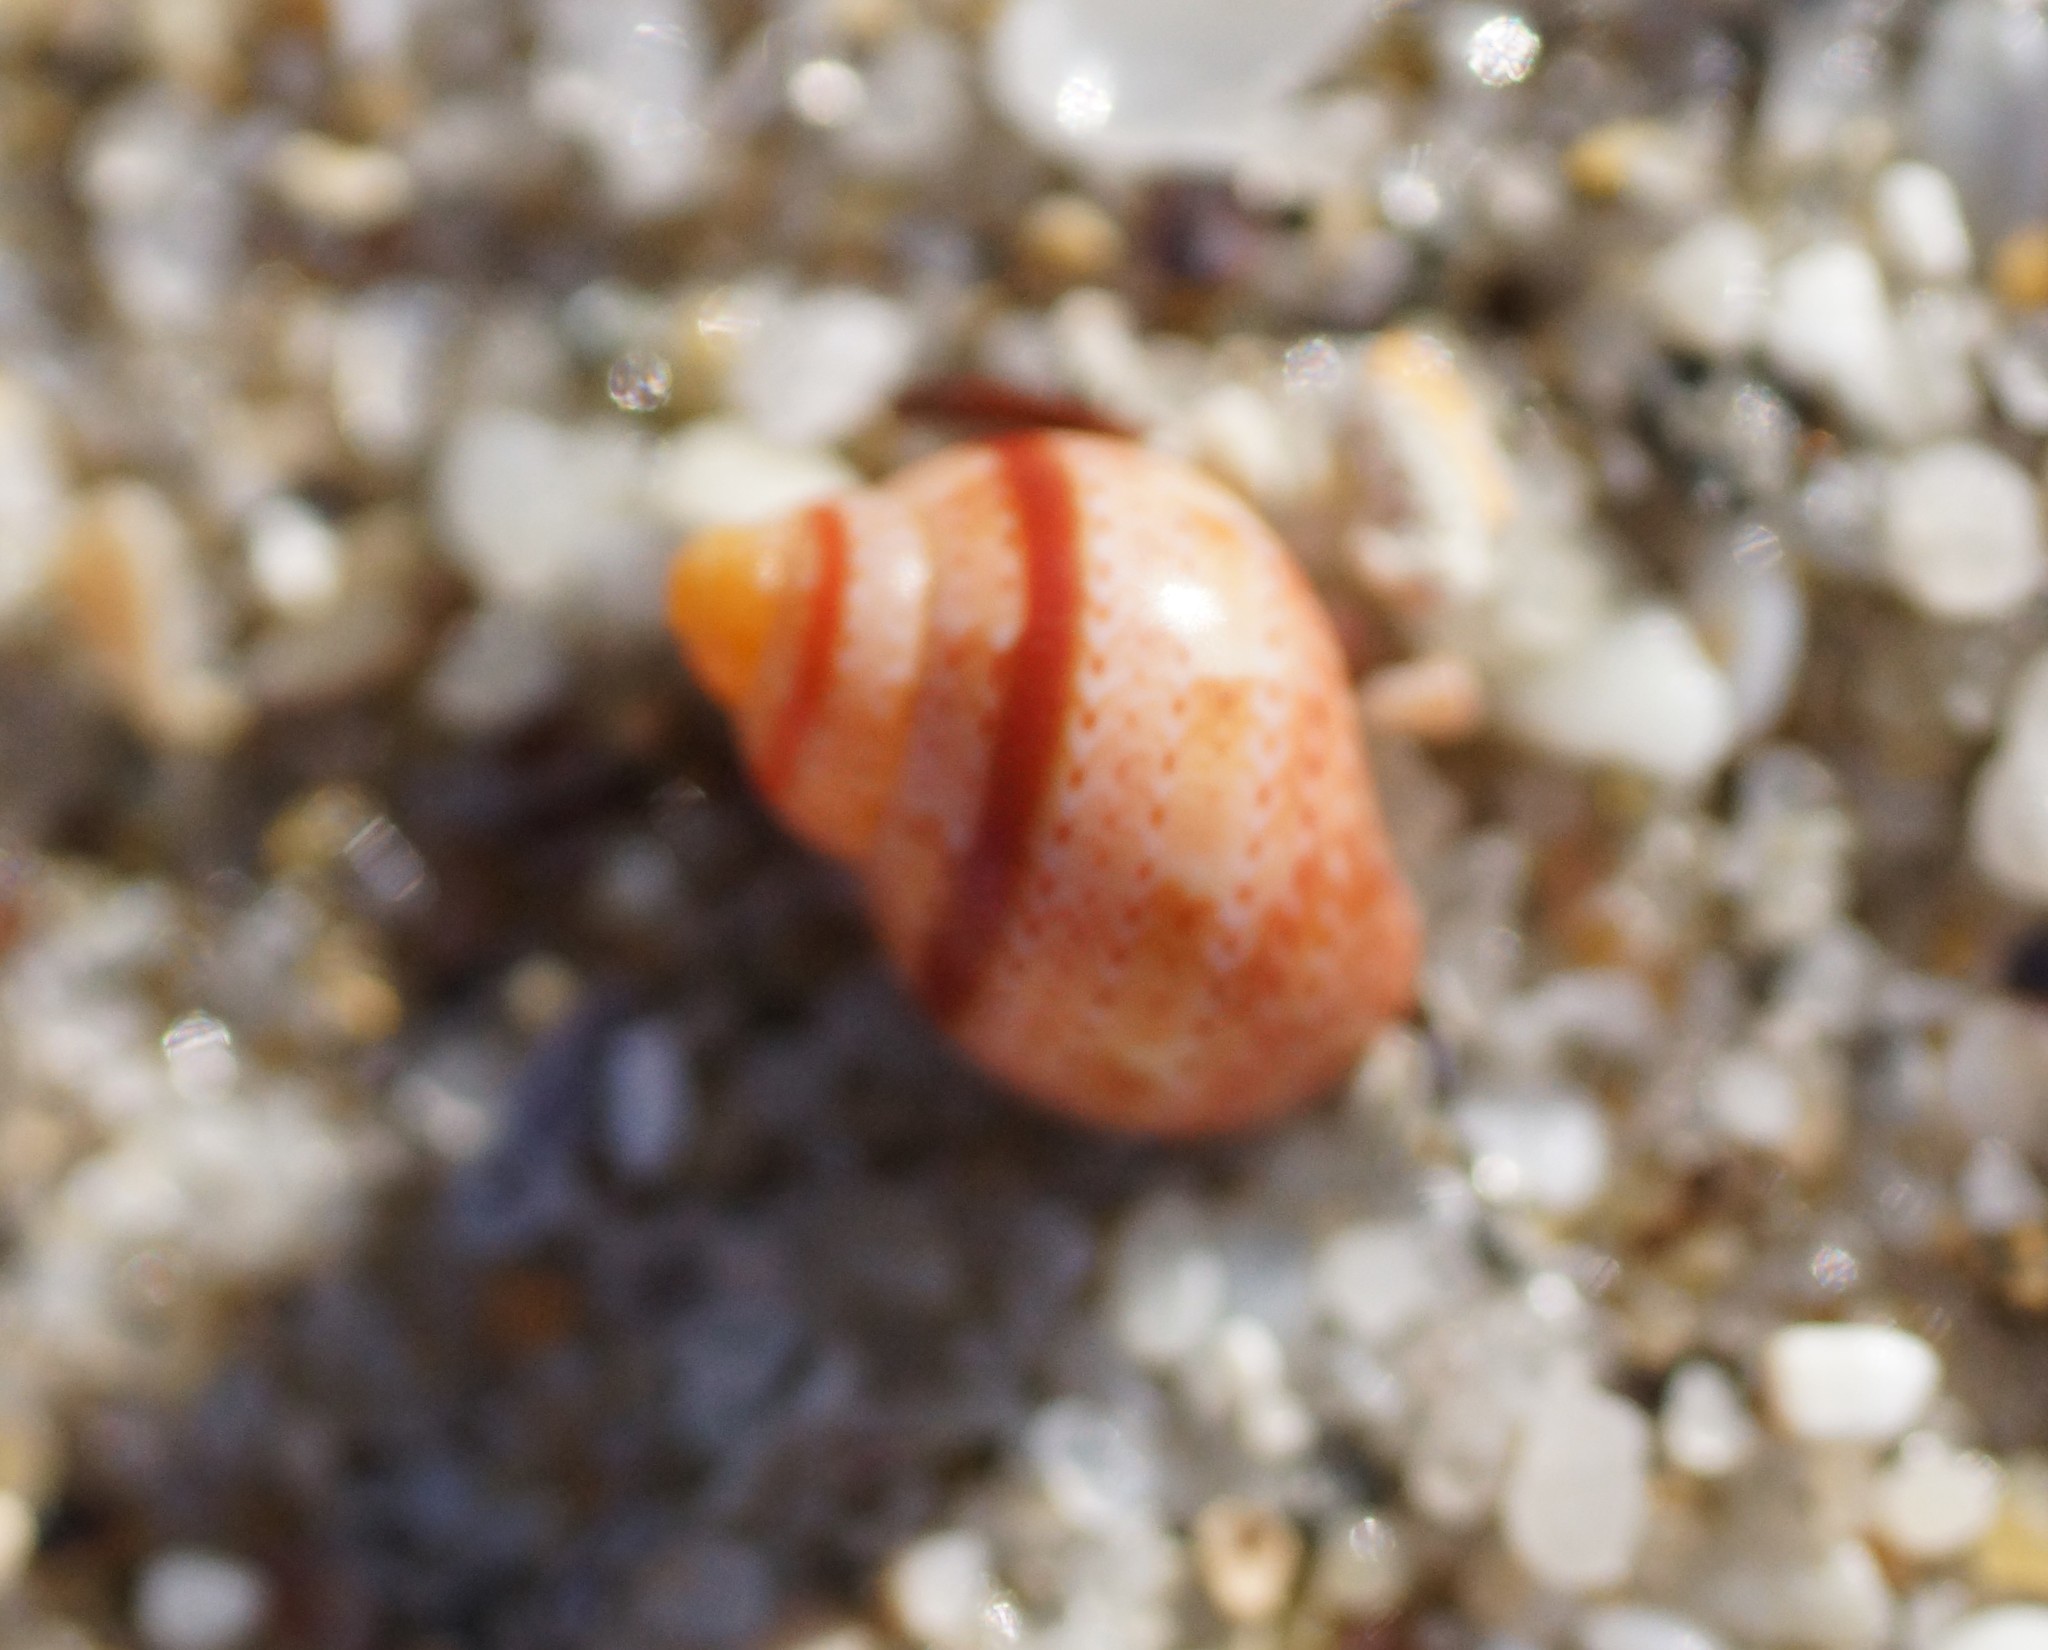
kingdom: Animalia
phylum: Mollusca
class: Gastropoda
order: Trochida
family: Phasianellidae
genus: Phasianella
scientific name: Phasianella ventricosa
